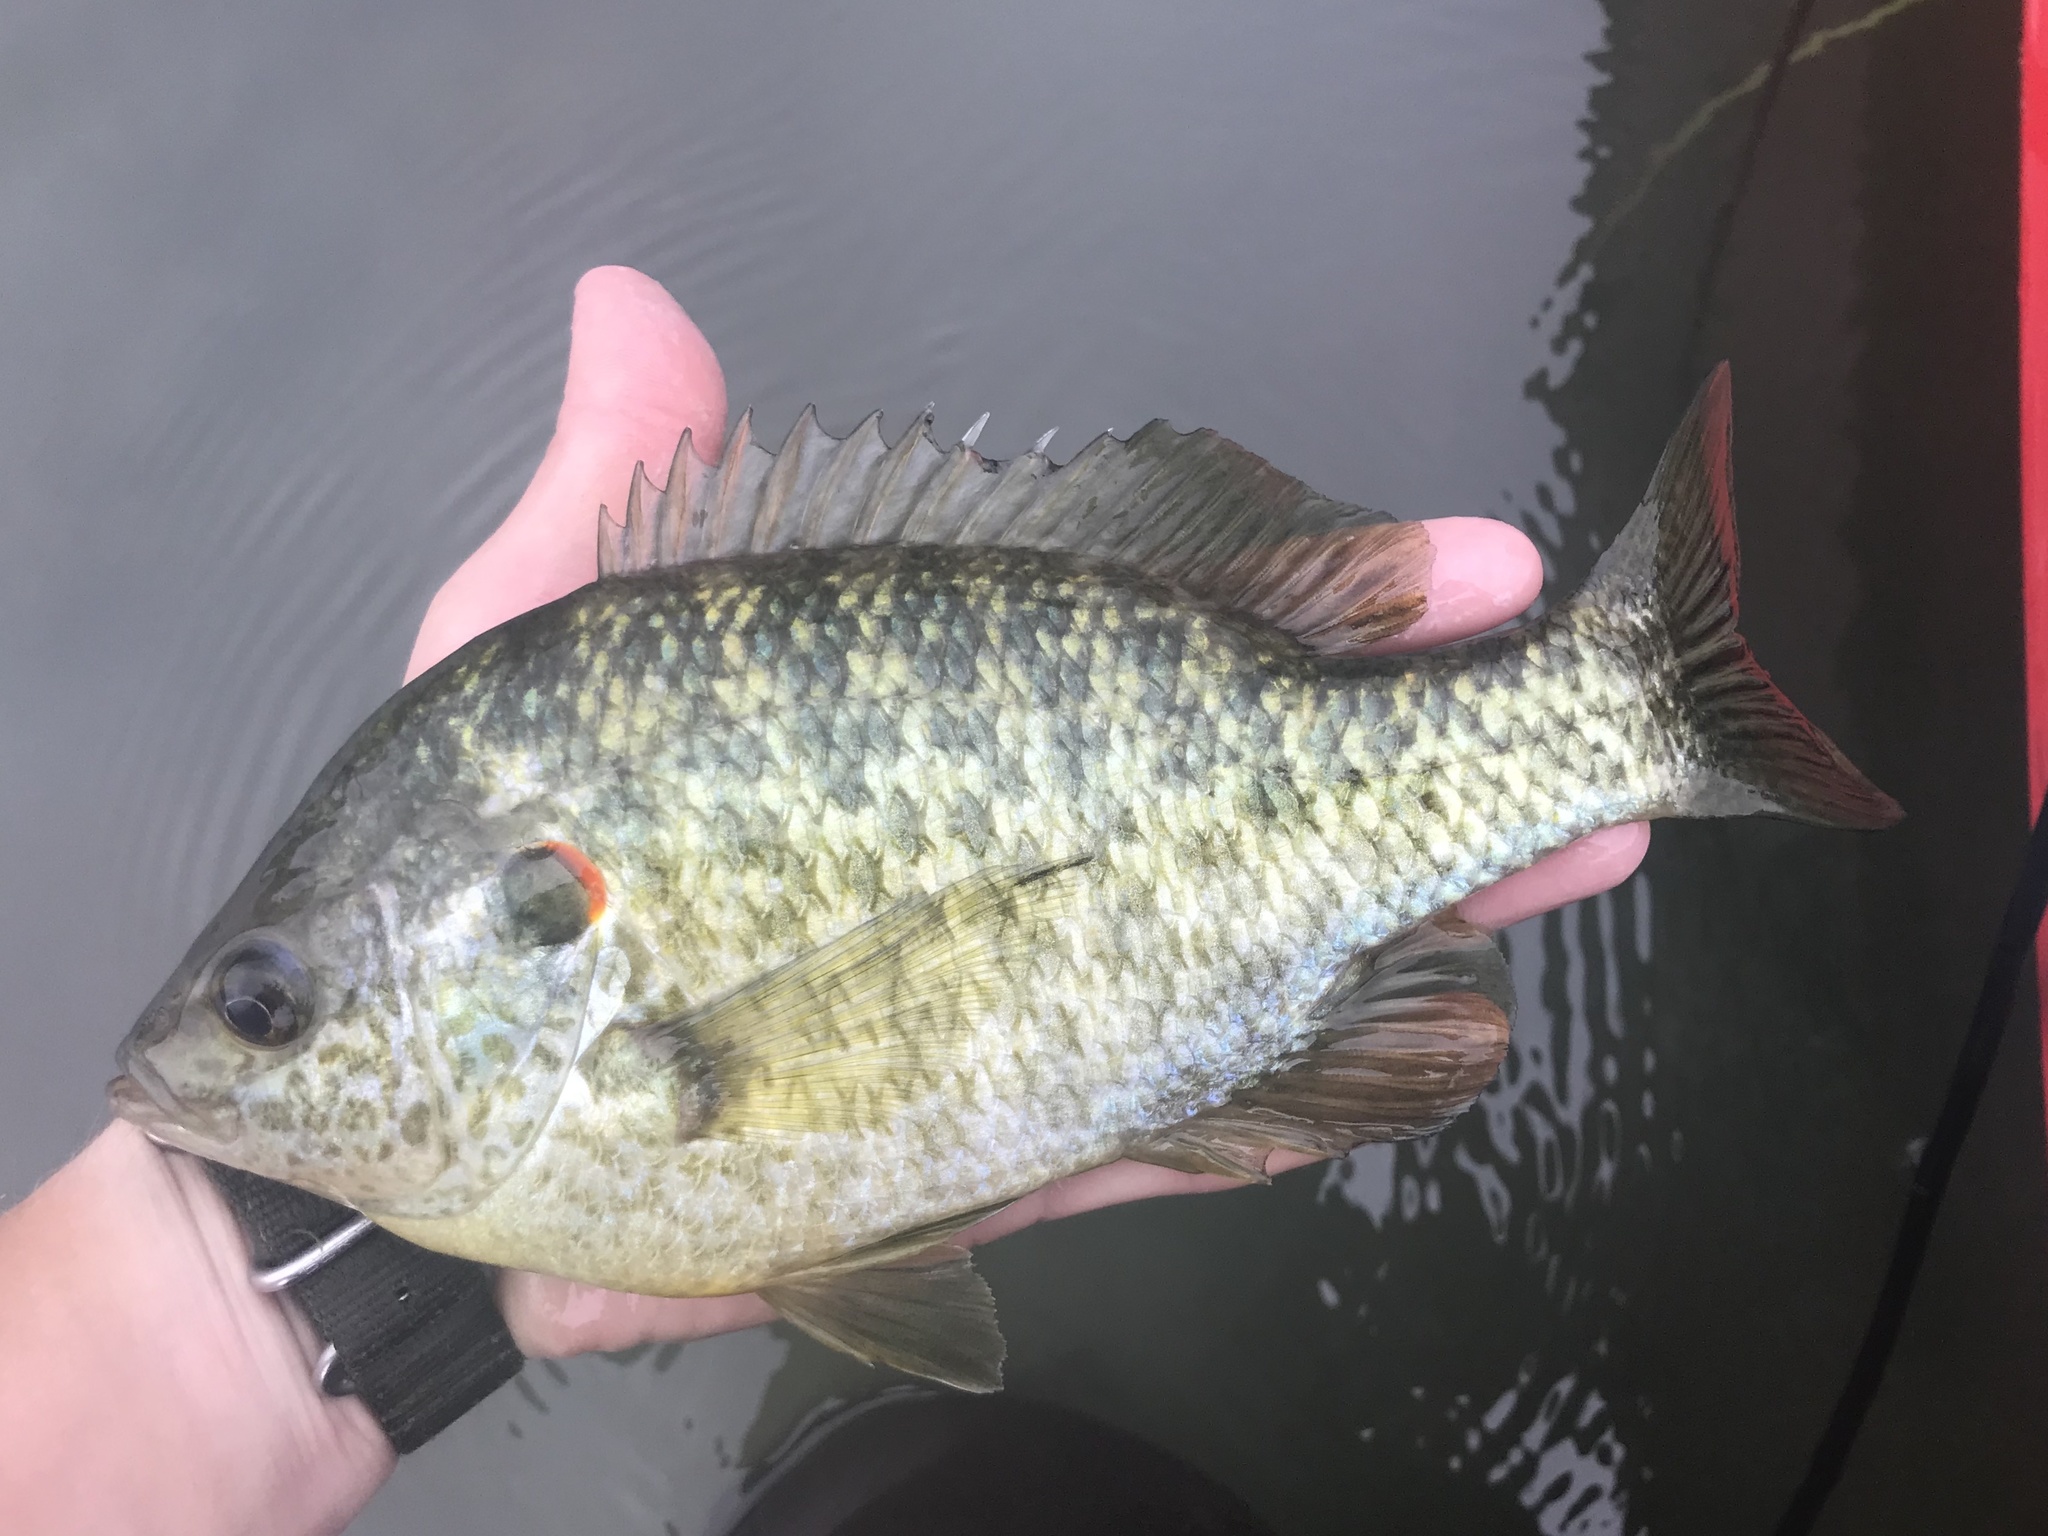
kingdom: Animalia
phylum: Chordata
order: Perciformes
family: Centrarchidae
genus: Lepomis
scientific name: Lepomis microlophus
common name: Redear sunfish
